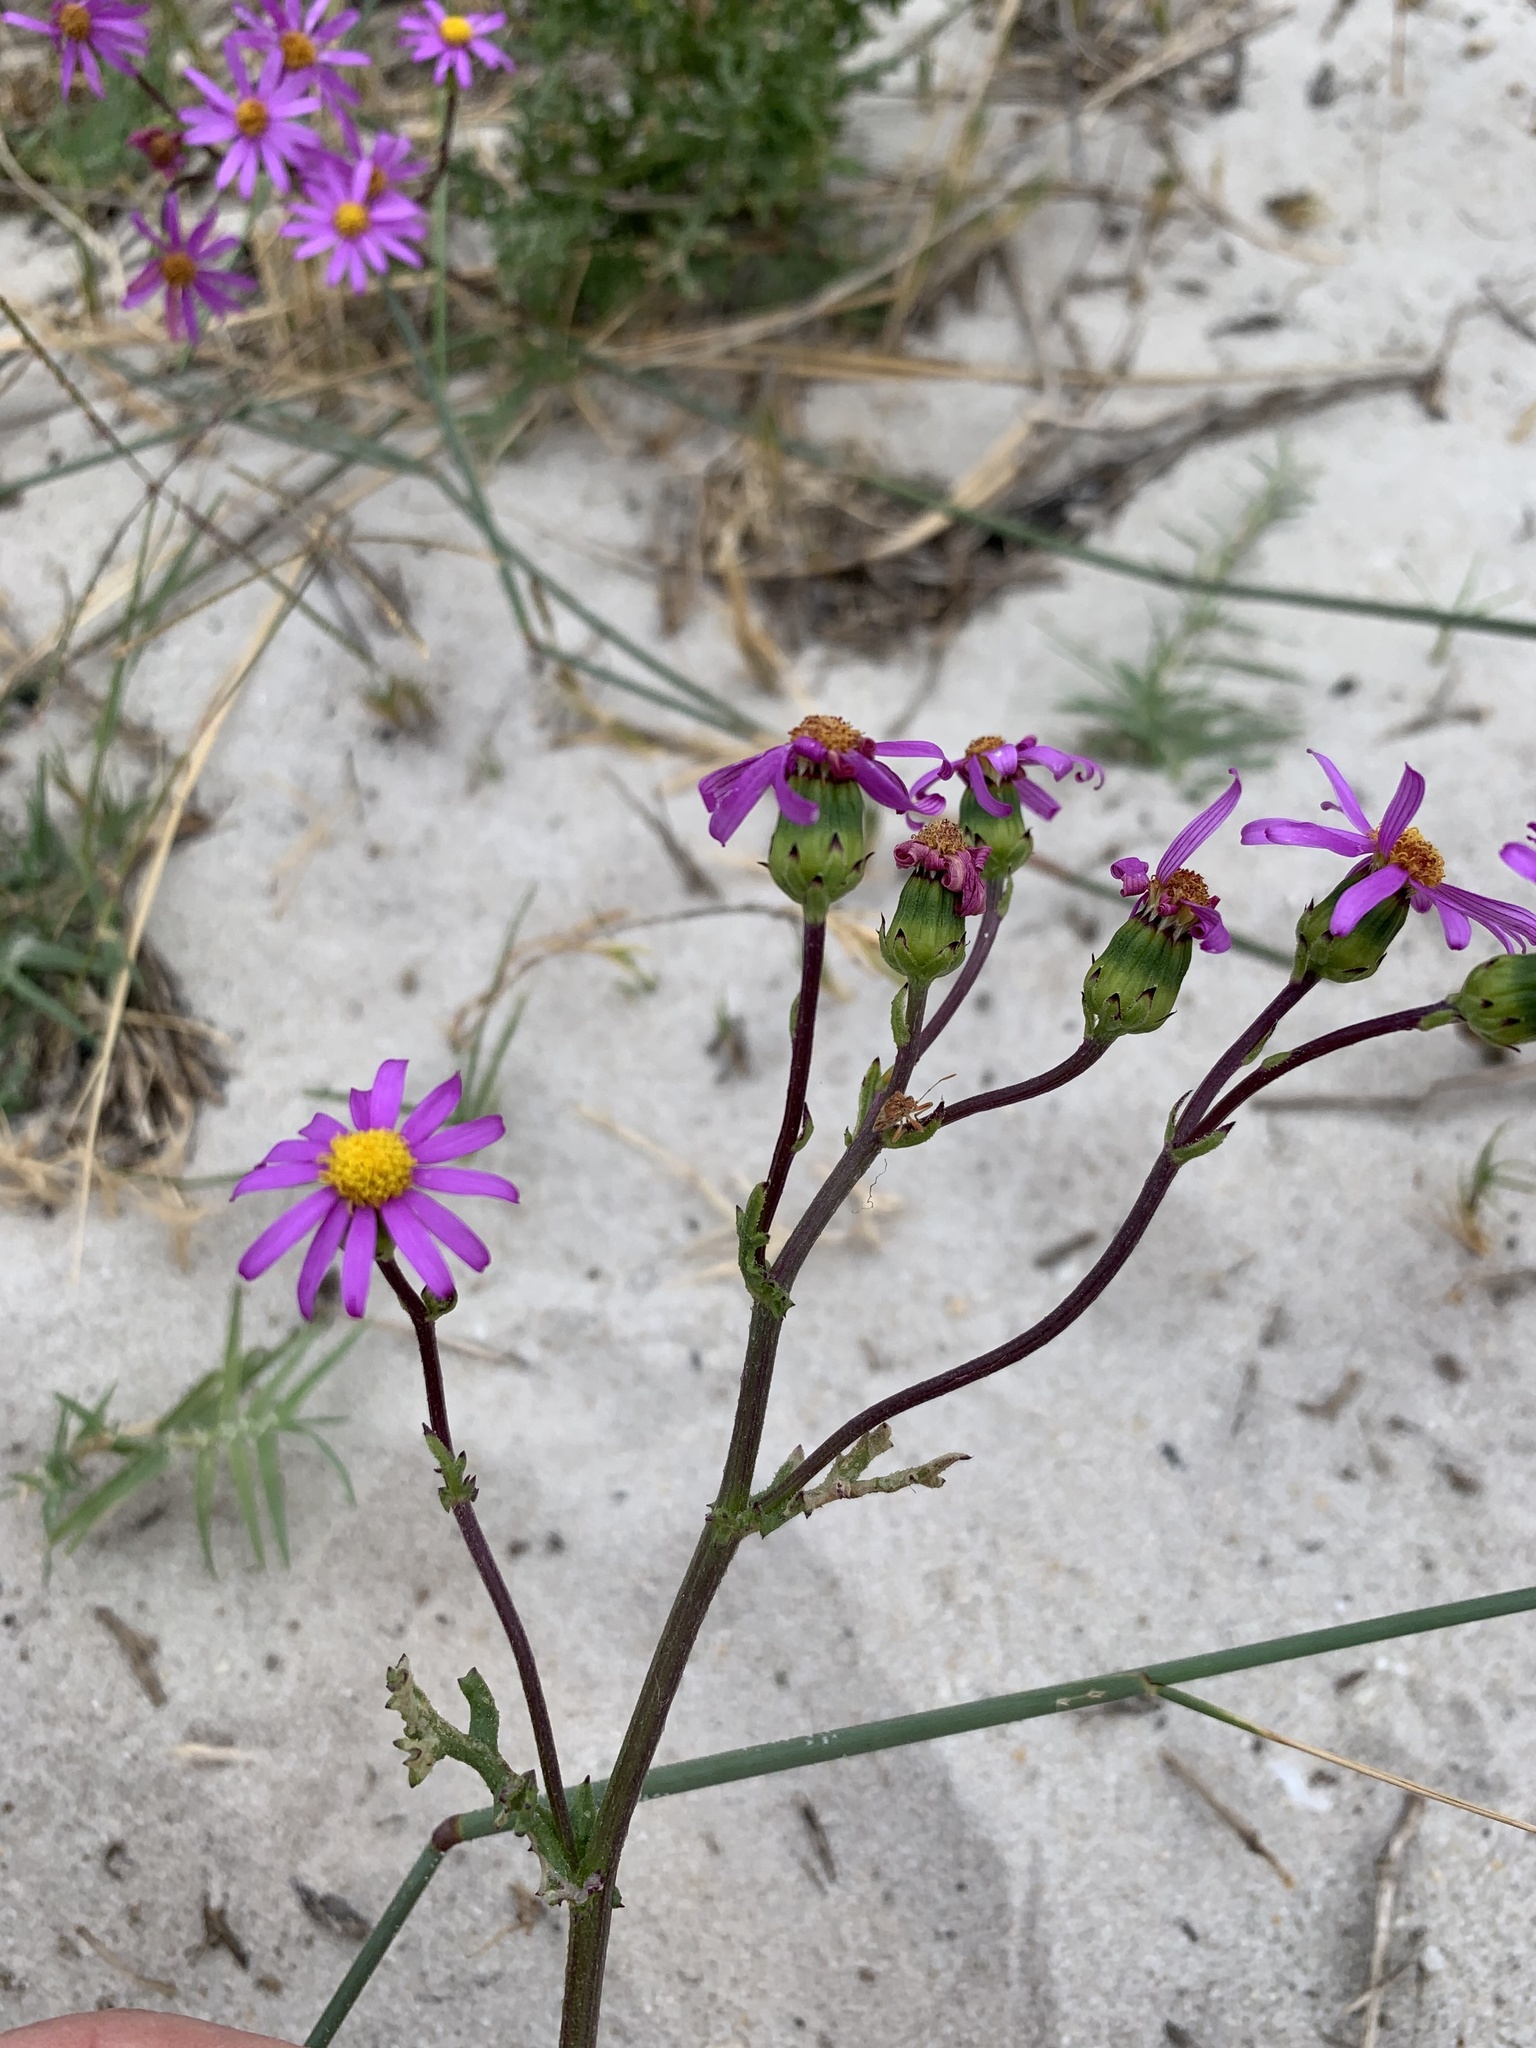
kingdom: Plantae
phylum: Tracheophyta
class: Magnoliopsida
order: Asterales
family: Asteraceae
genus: Senecio
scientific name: Senecio elegans
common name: Purple groundsel
